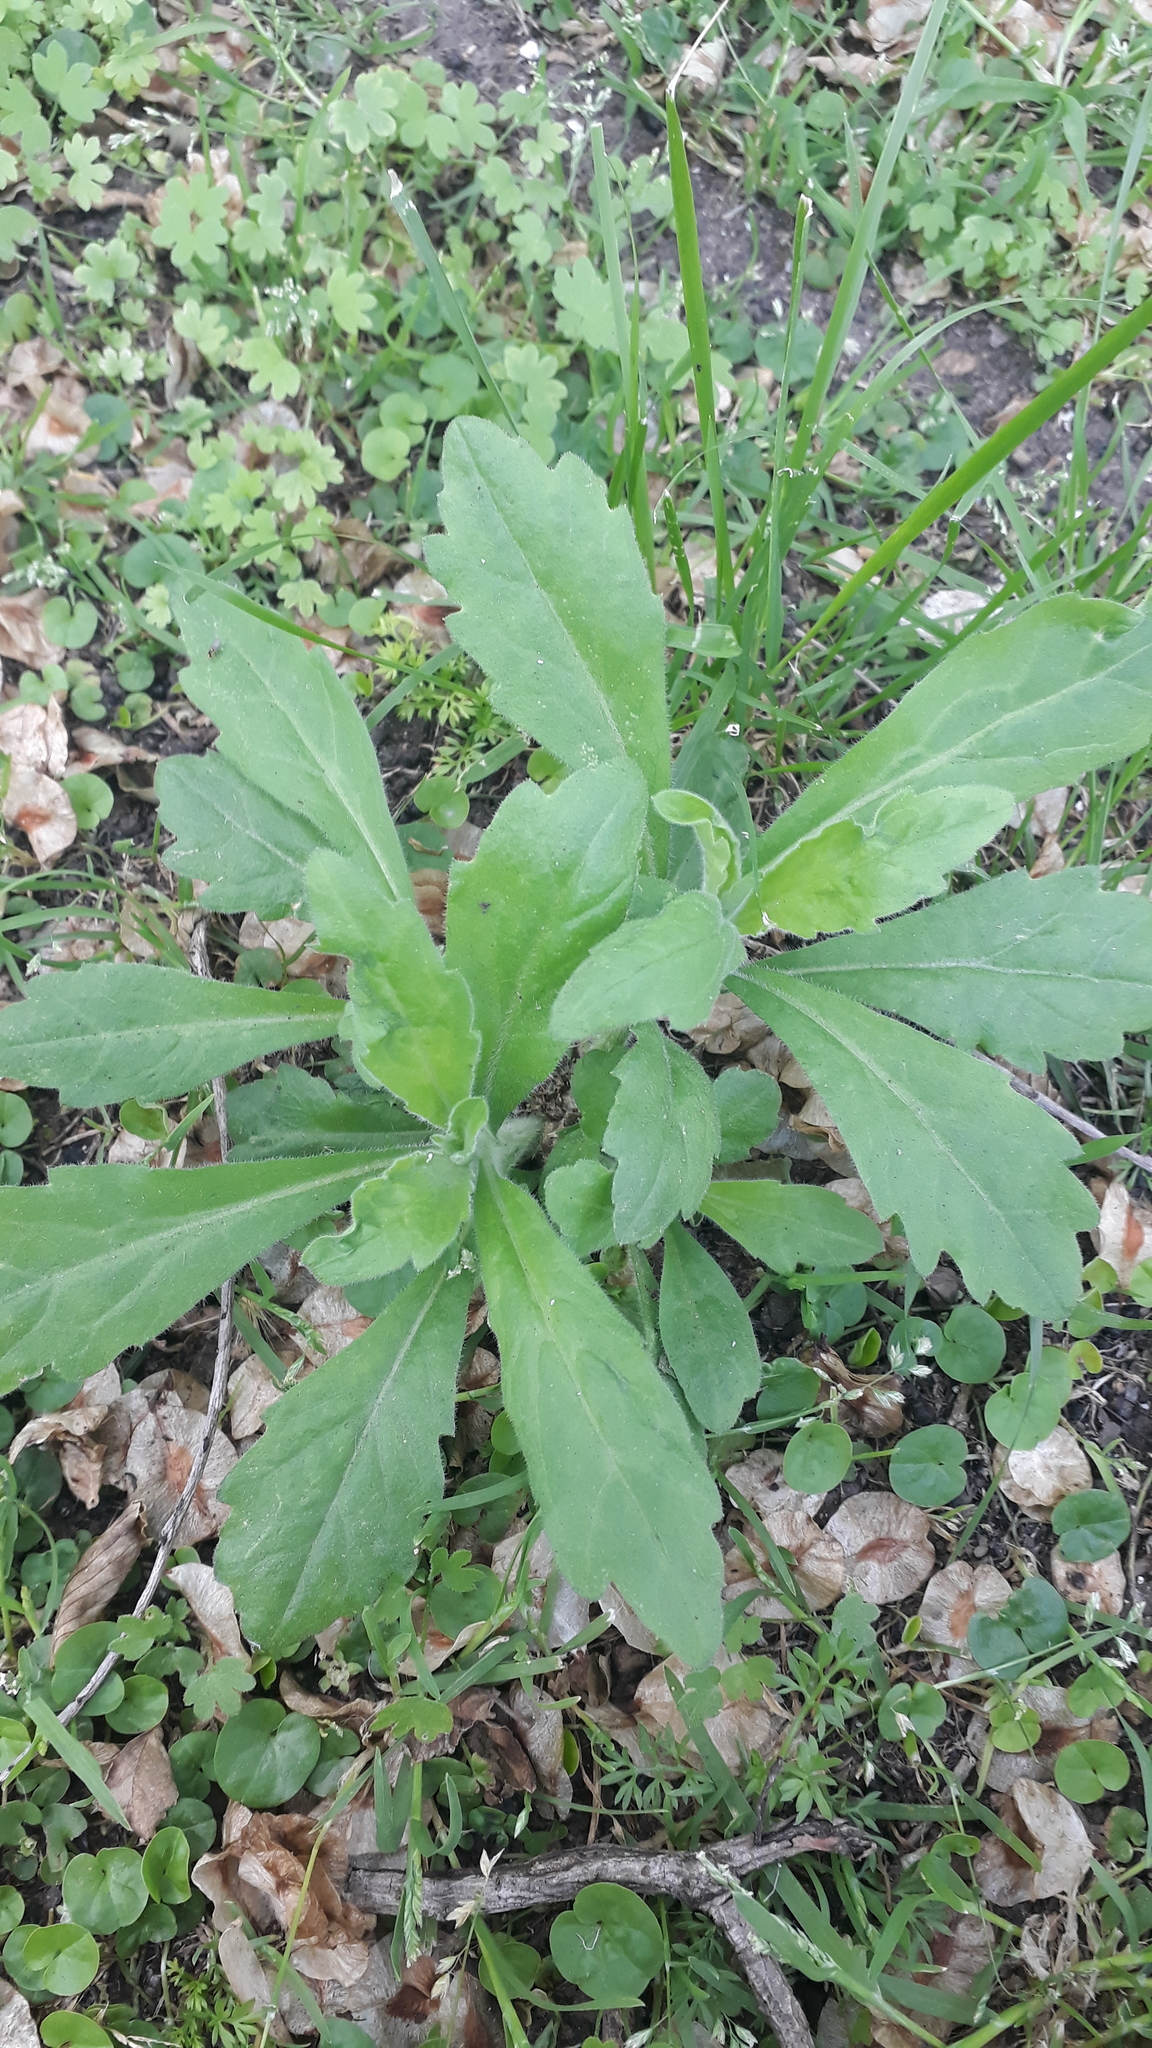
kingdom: Plantae
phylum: Tracheophyta
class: Magnoliopsida
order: Asterales
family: Asteraceae
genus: Erigeron
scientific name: Erigeron bonariensis
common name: Argentine fleabane
